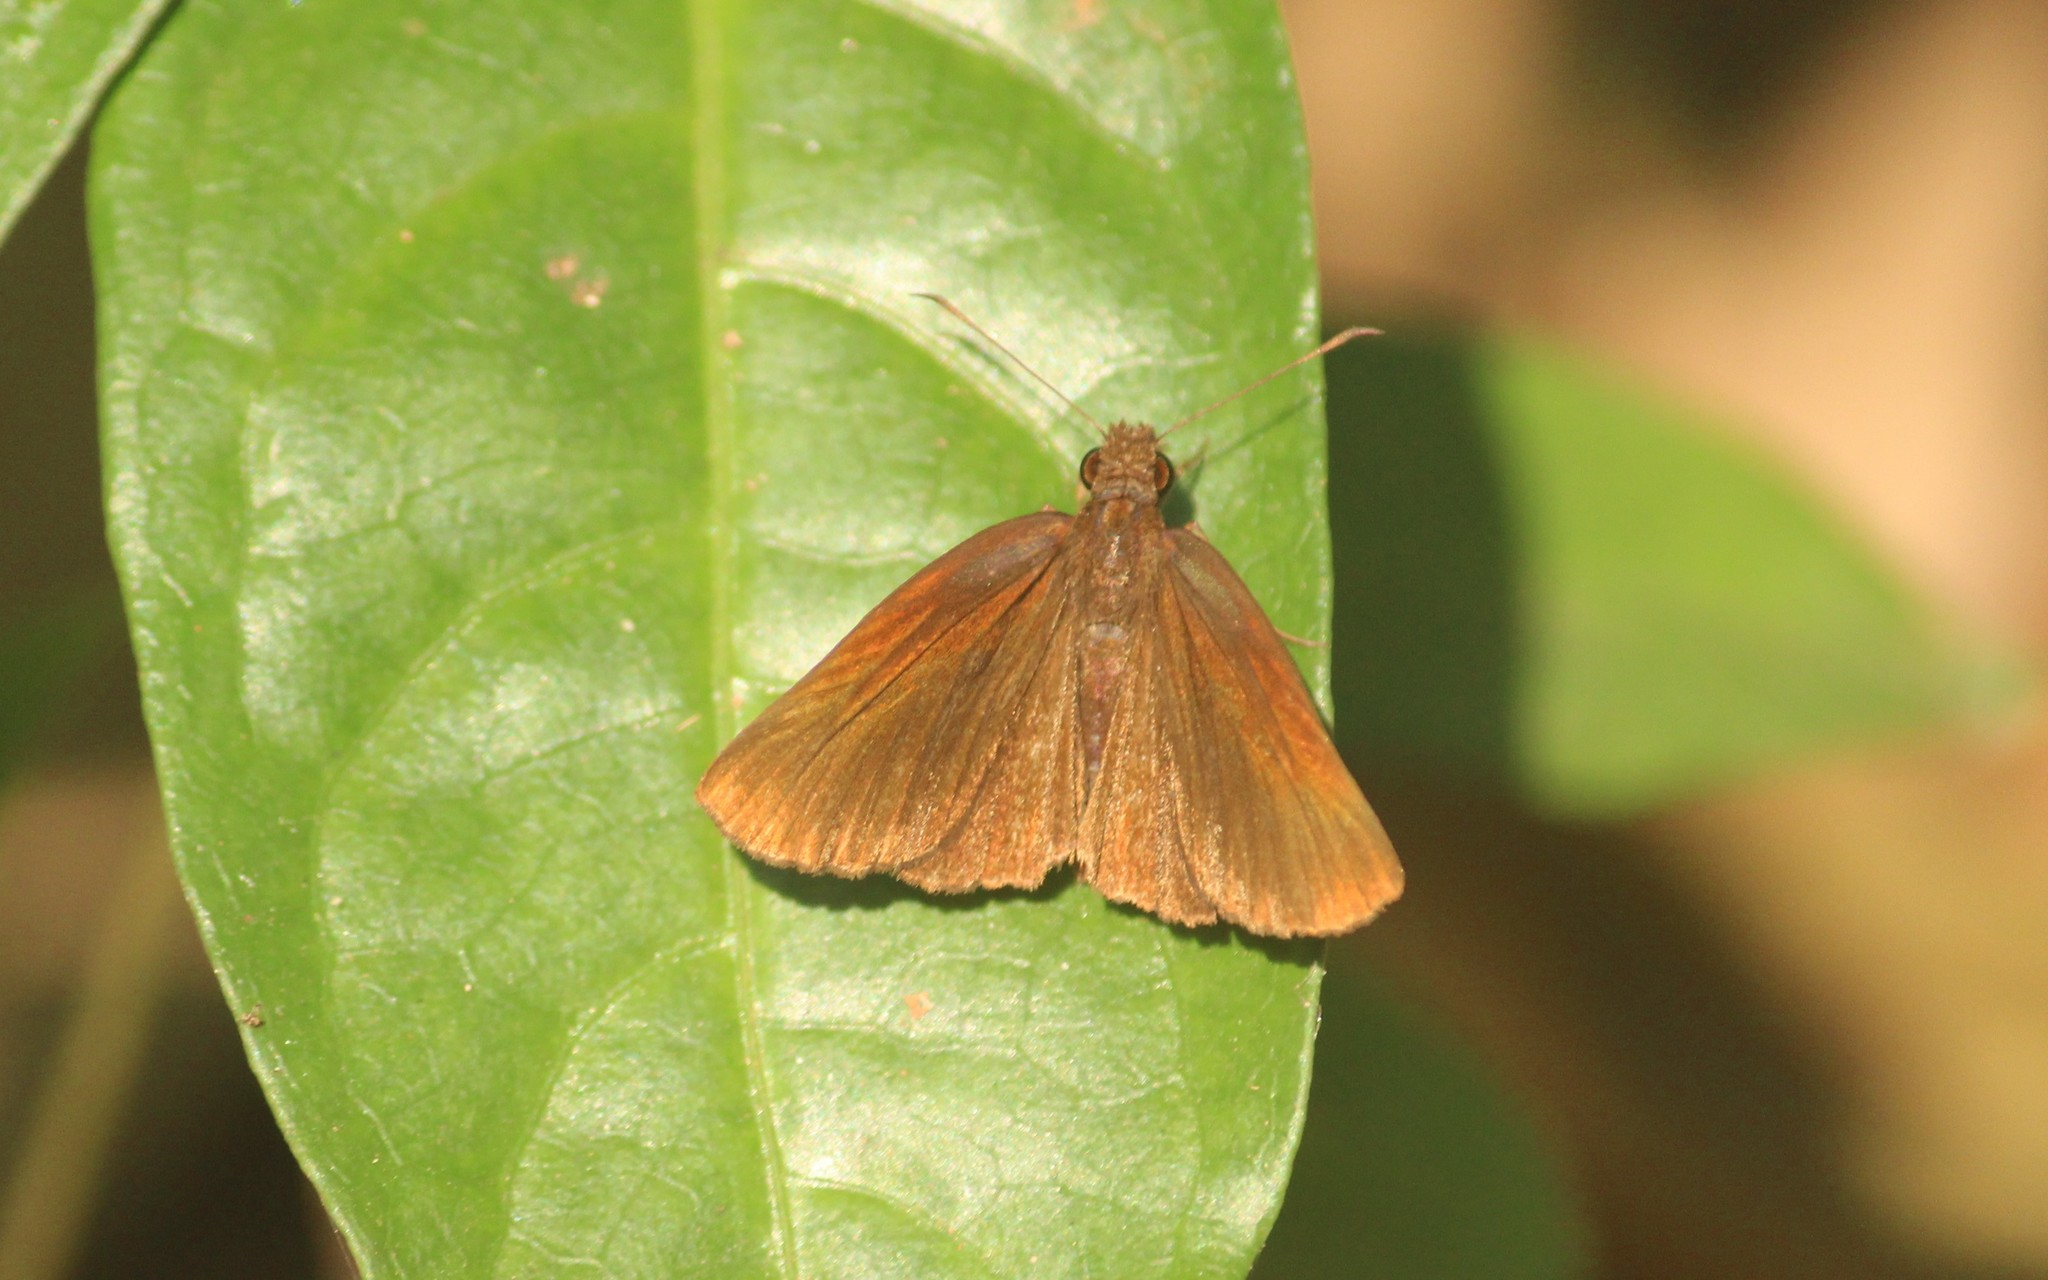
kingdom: Animalia
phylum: Arthropoda
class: Insecta
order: Lepidoptera
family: Hesperiidae
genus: Psolos
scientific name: Psolos fuligo
